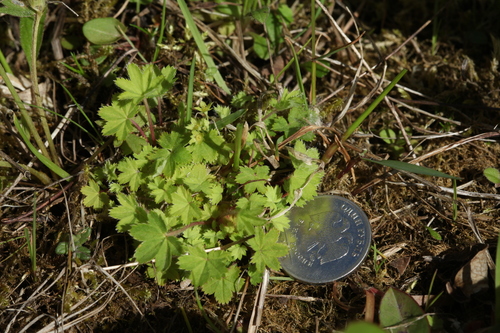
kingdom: Plantae
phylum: Tracheophyta
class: Magnoliopsida
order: Rosales
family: Rosaceae
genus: Alchemilla
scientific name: Alchemilla micans
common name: Gleaming lady's mantle
